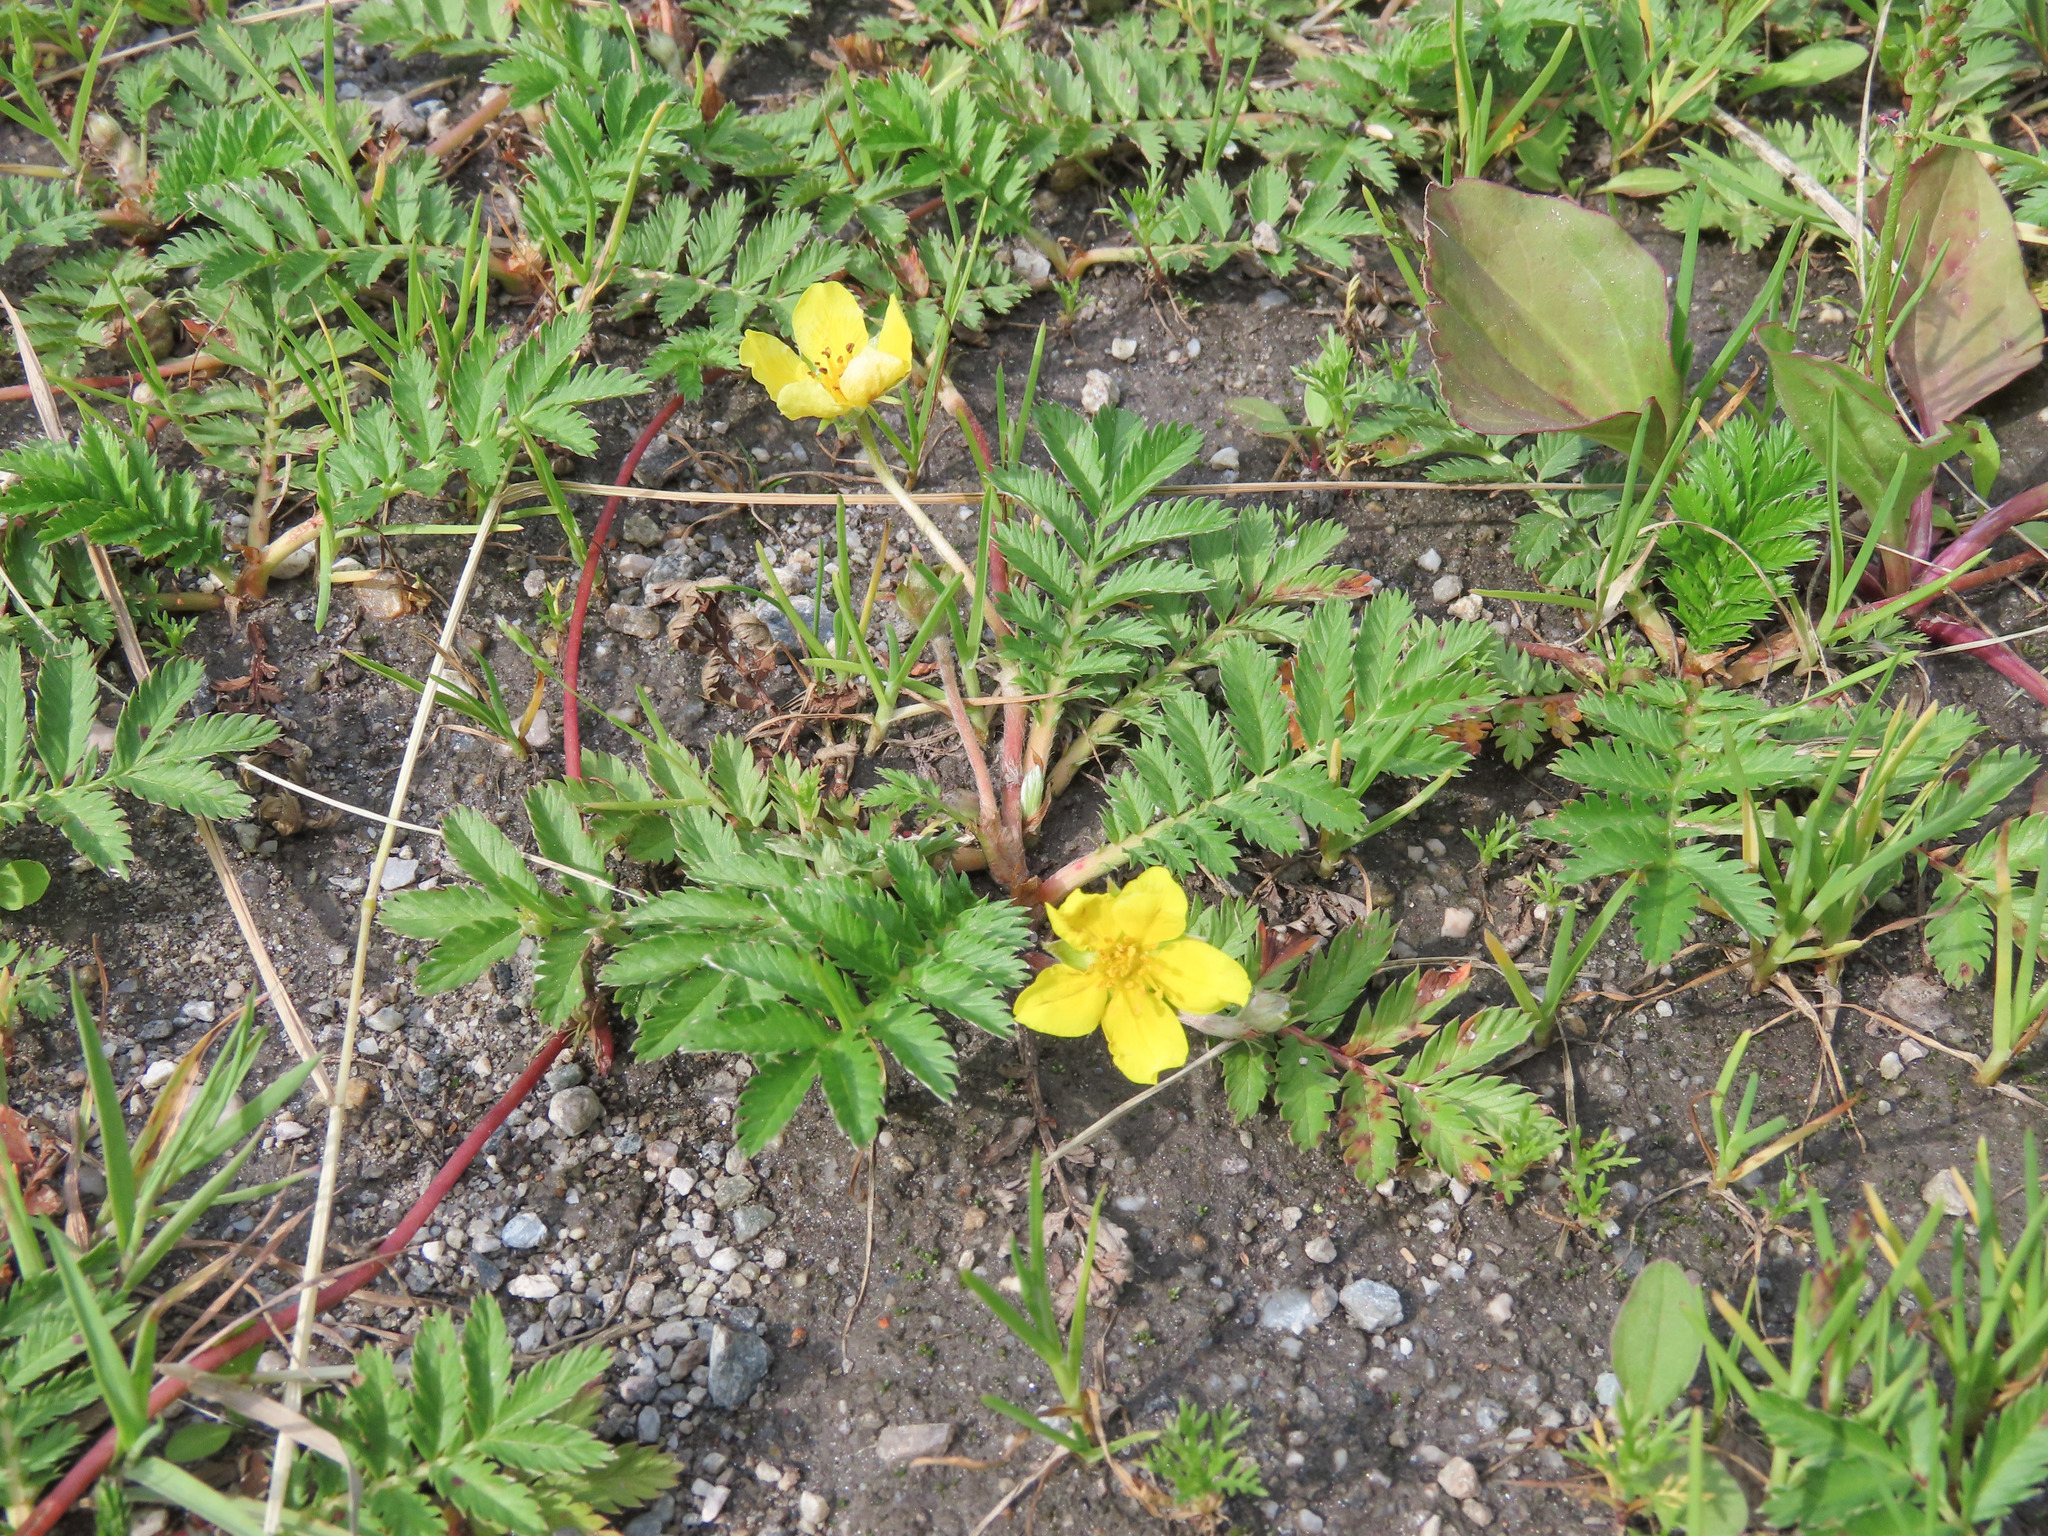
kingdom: Plantae
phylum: Tracheophyta
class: Magnoliopsida
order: Rosales
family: Rosaceae
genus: Argentina
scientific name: Argentina anserina
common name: Common silverweed
